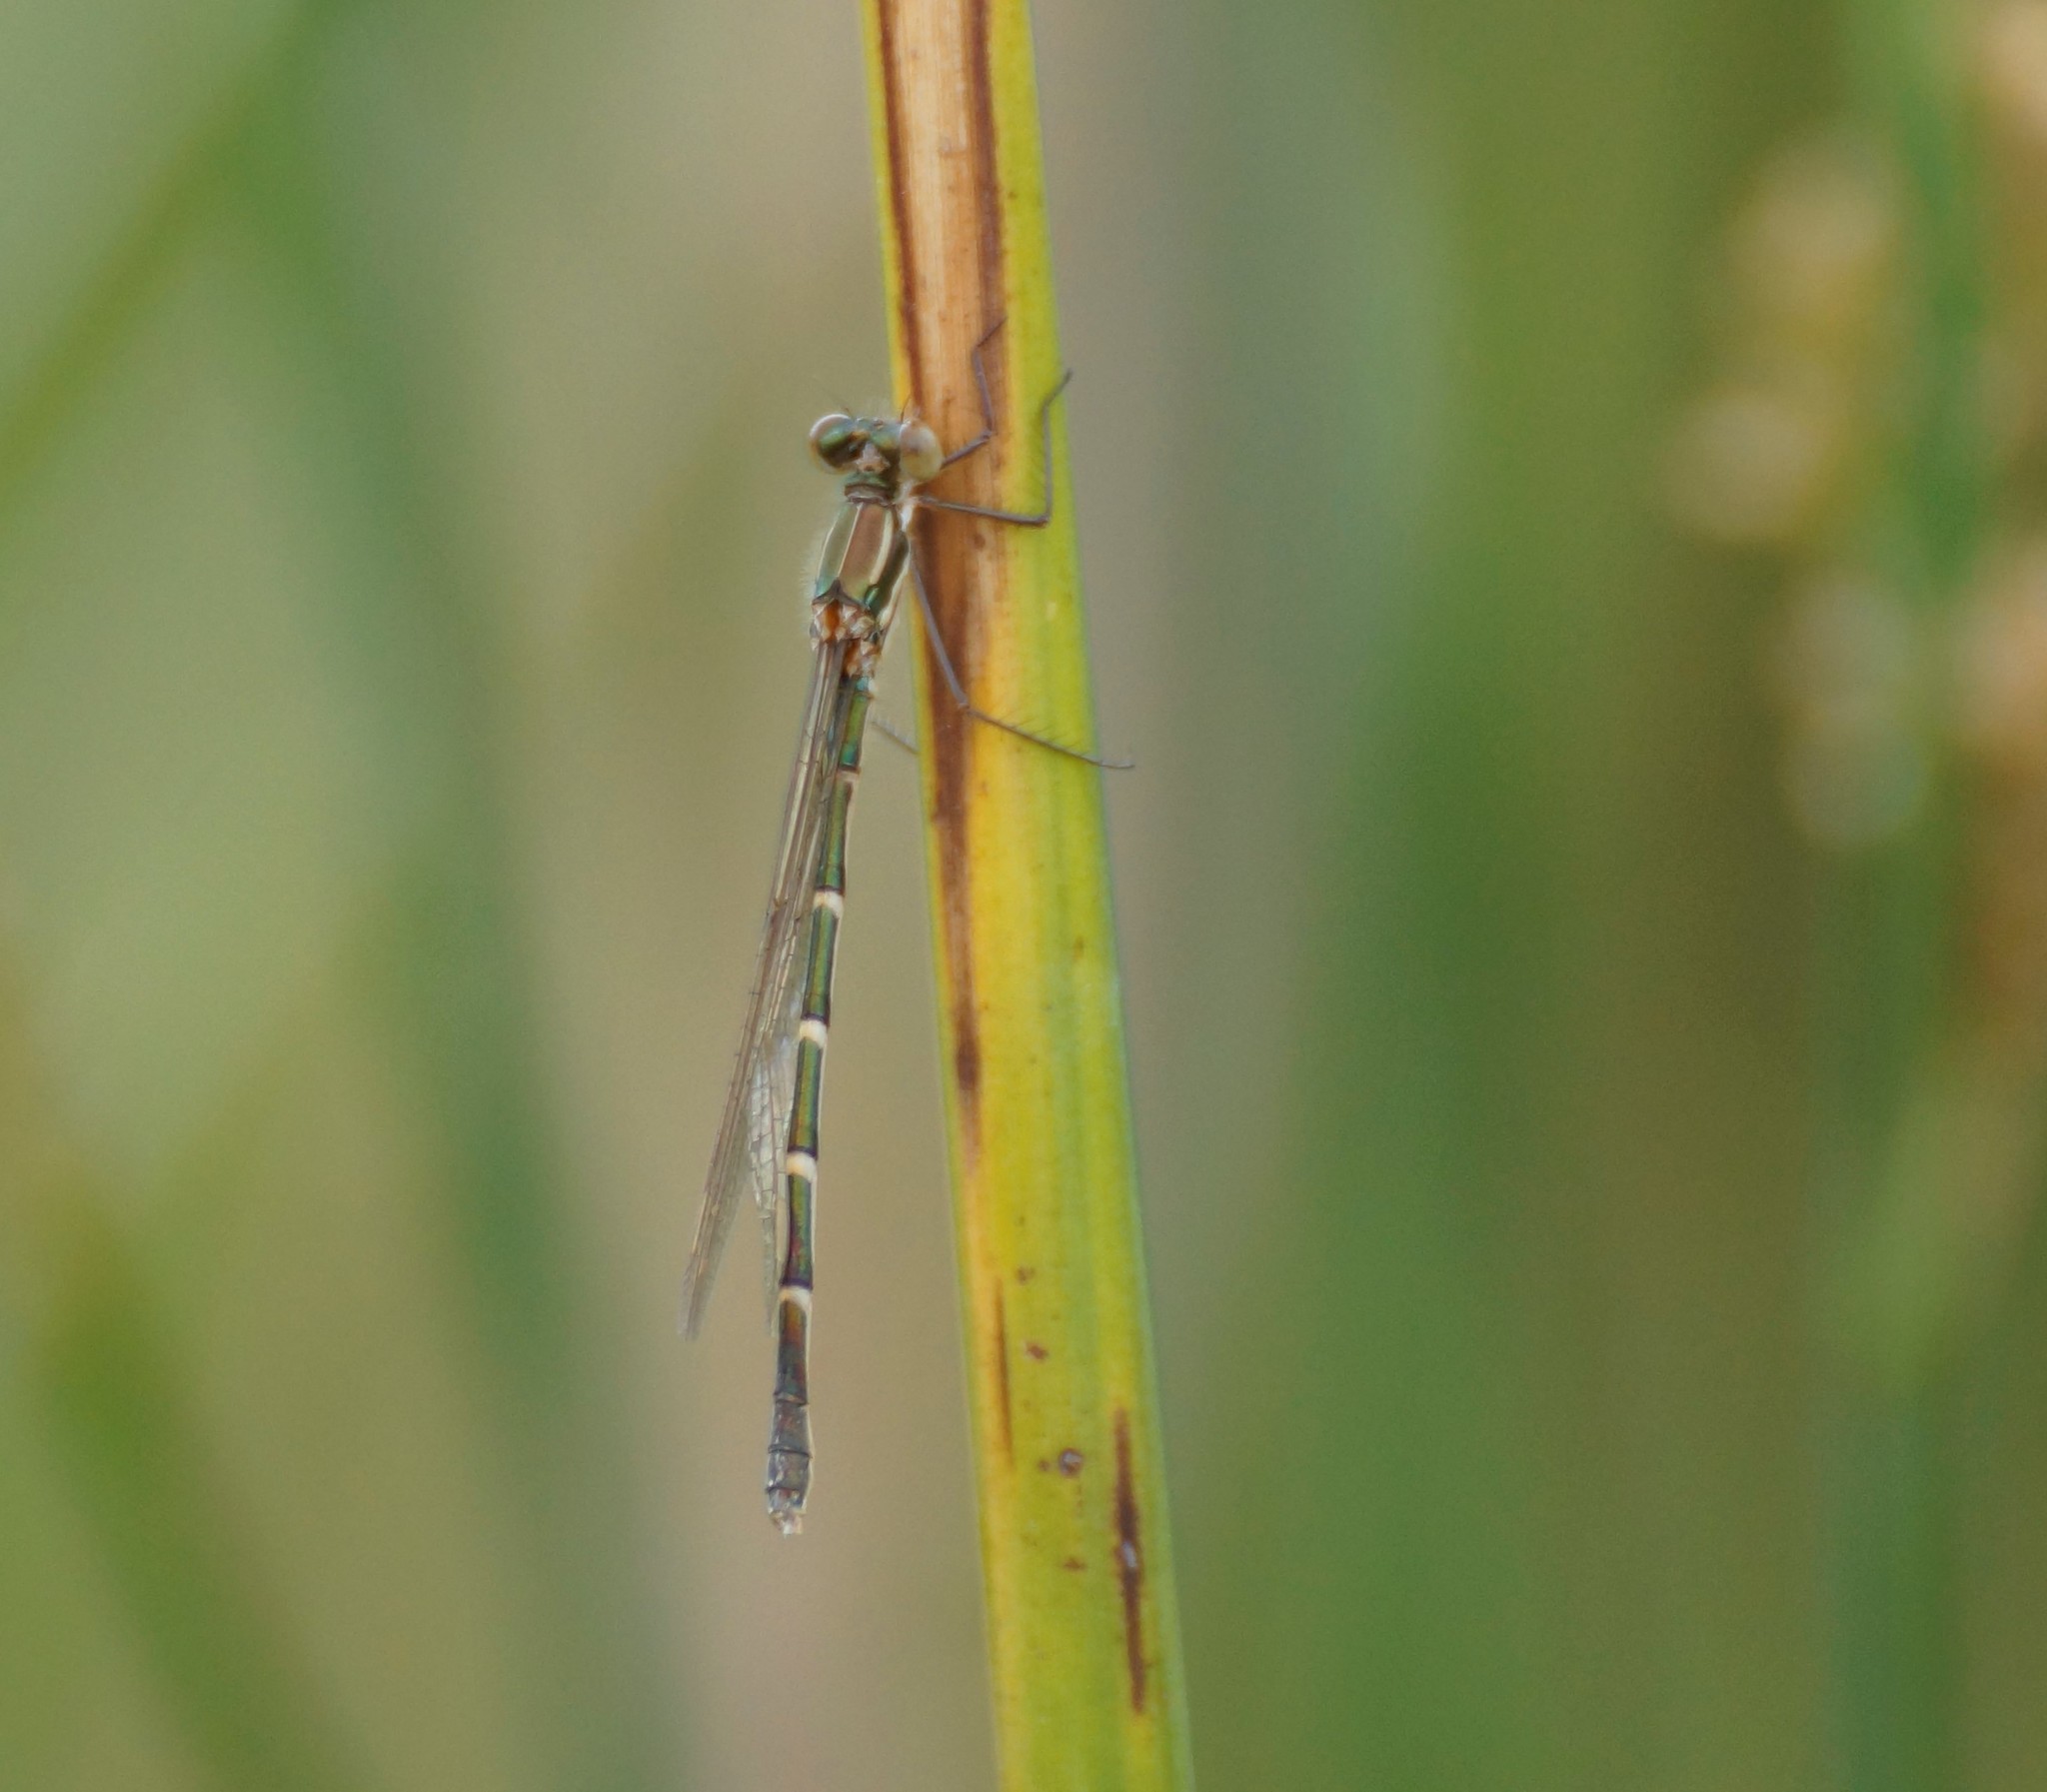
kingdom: Animalia
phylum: Arthropoda
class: Insecta
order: Odonata
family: Lestidae
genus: Austrolestes
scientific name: Austrolestes annulosus
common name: Blue ringtail
